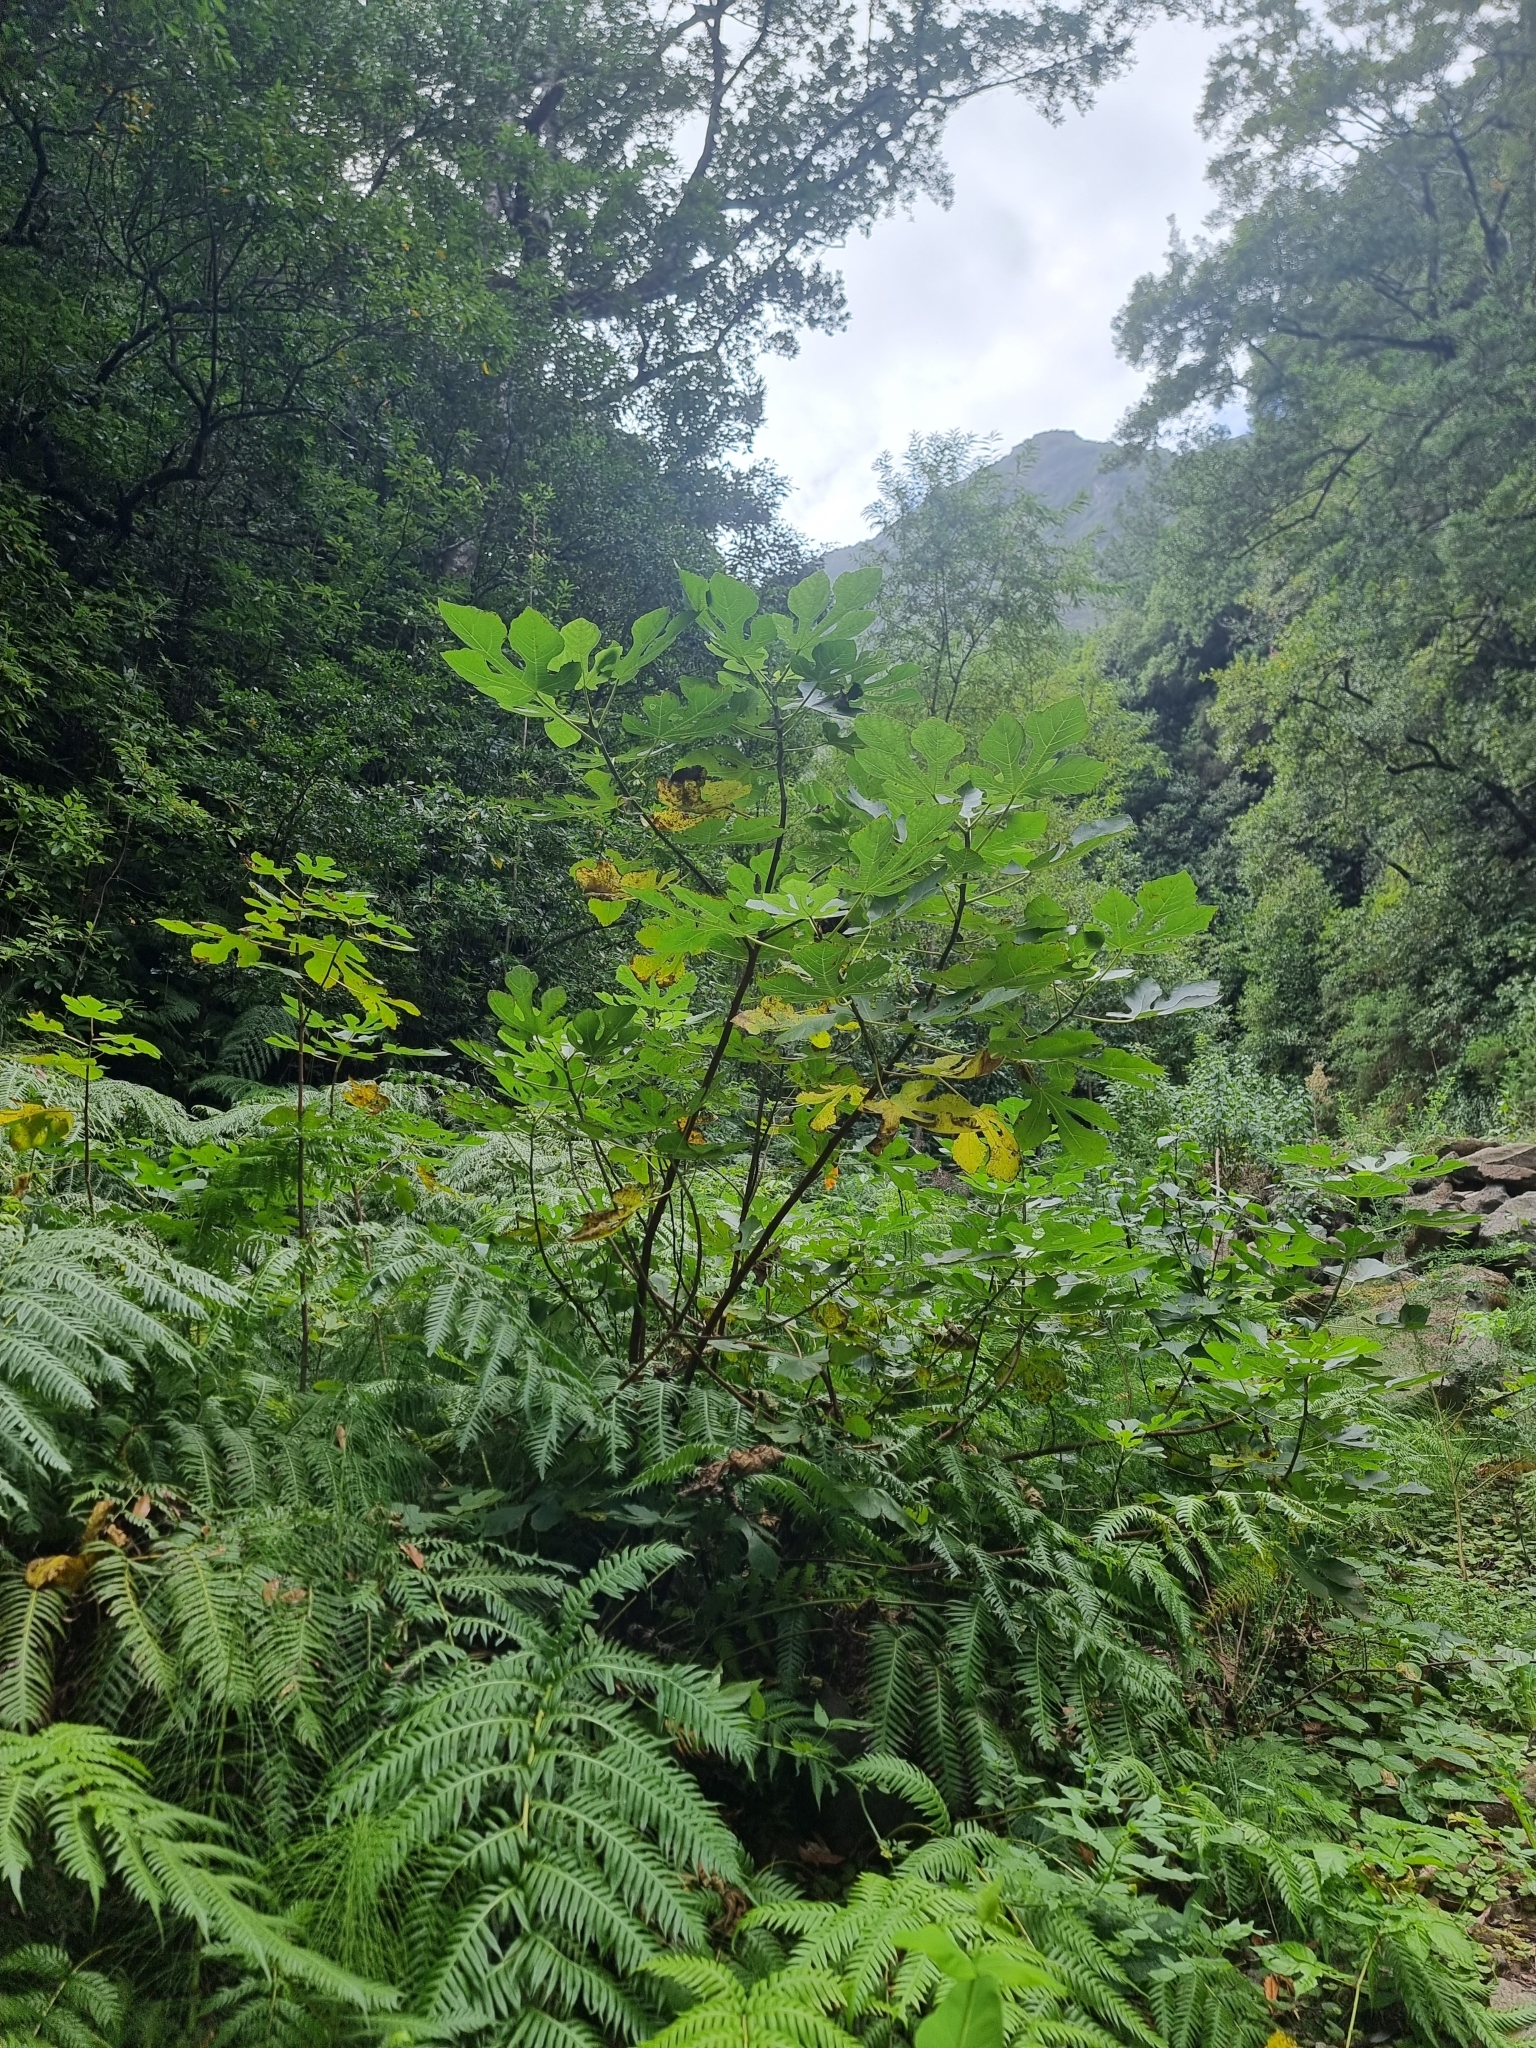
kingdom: Plantae
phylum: Tracheophyta
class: Magnoliopsida
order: Rosales
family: Moraceae
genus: Ficus
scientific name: Ficus carica
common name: Fig
